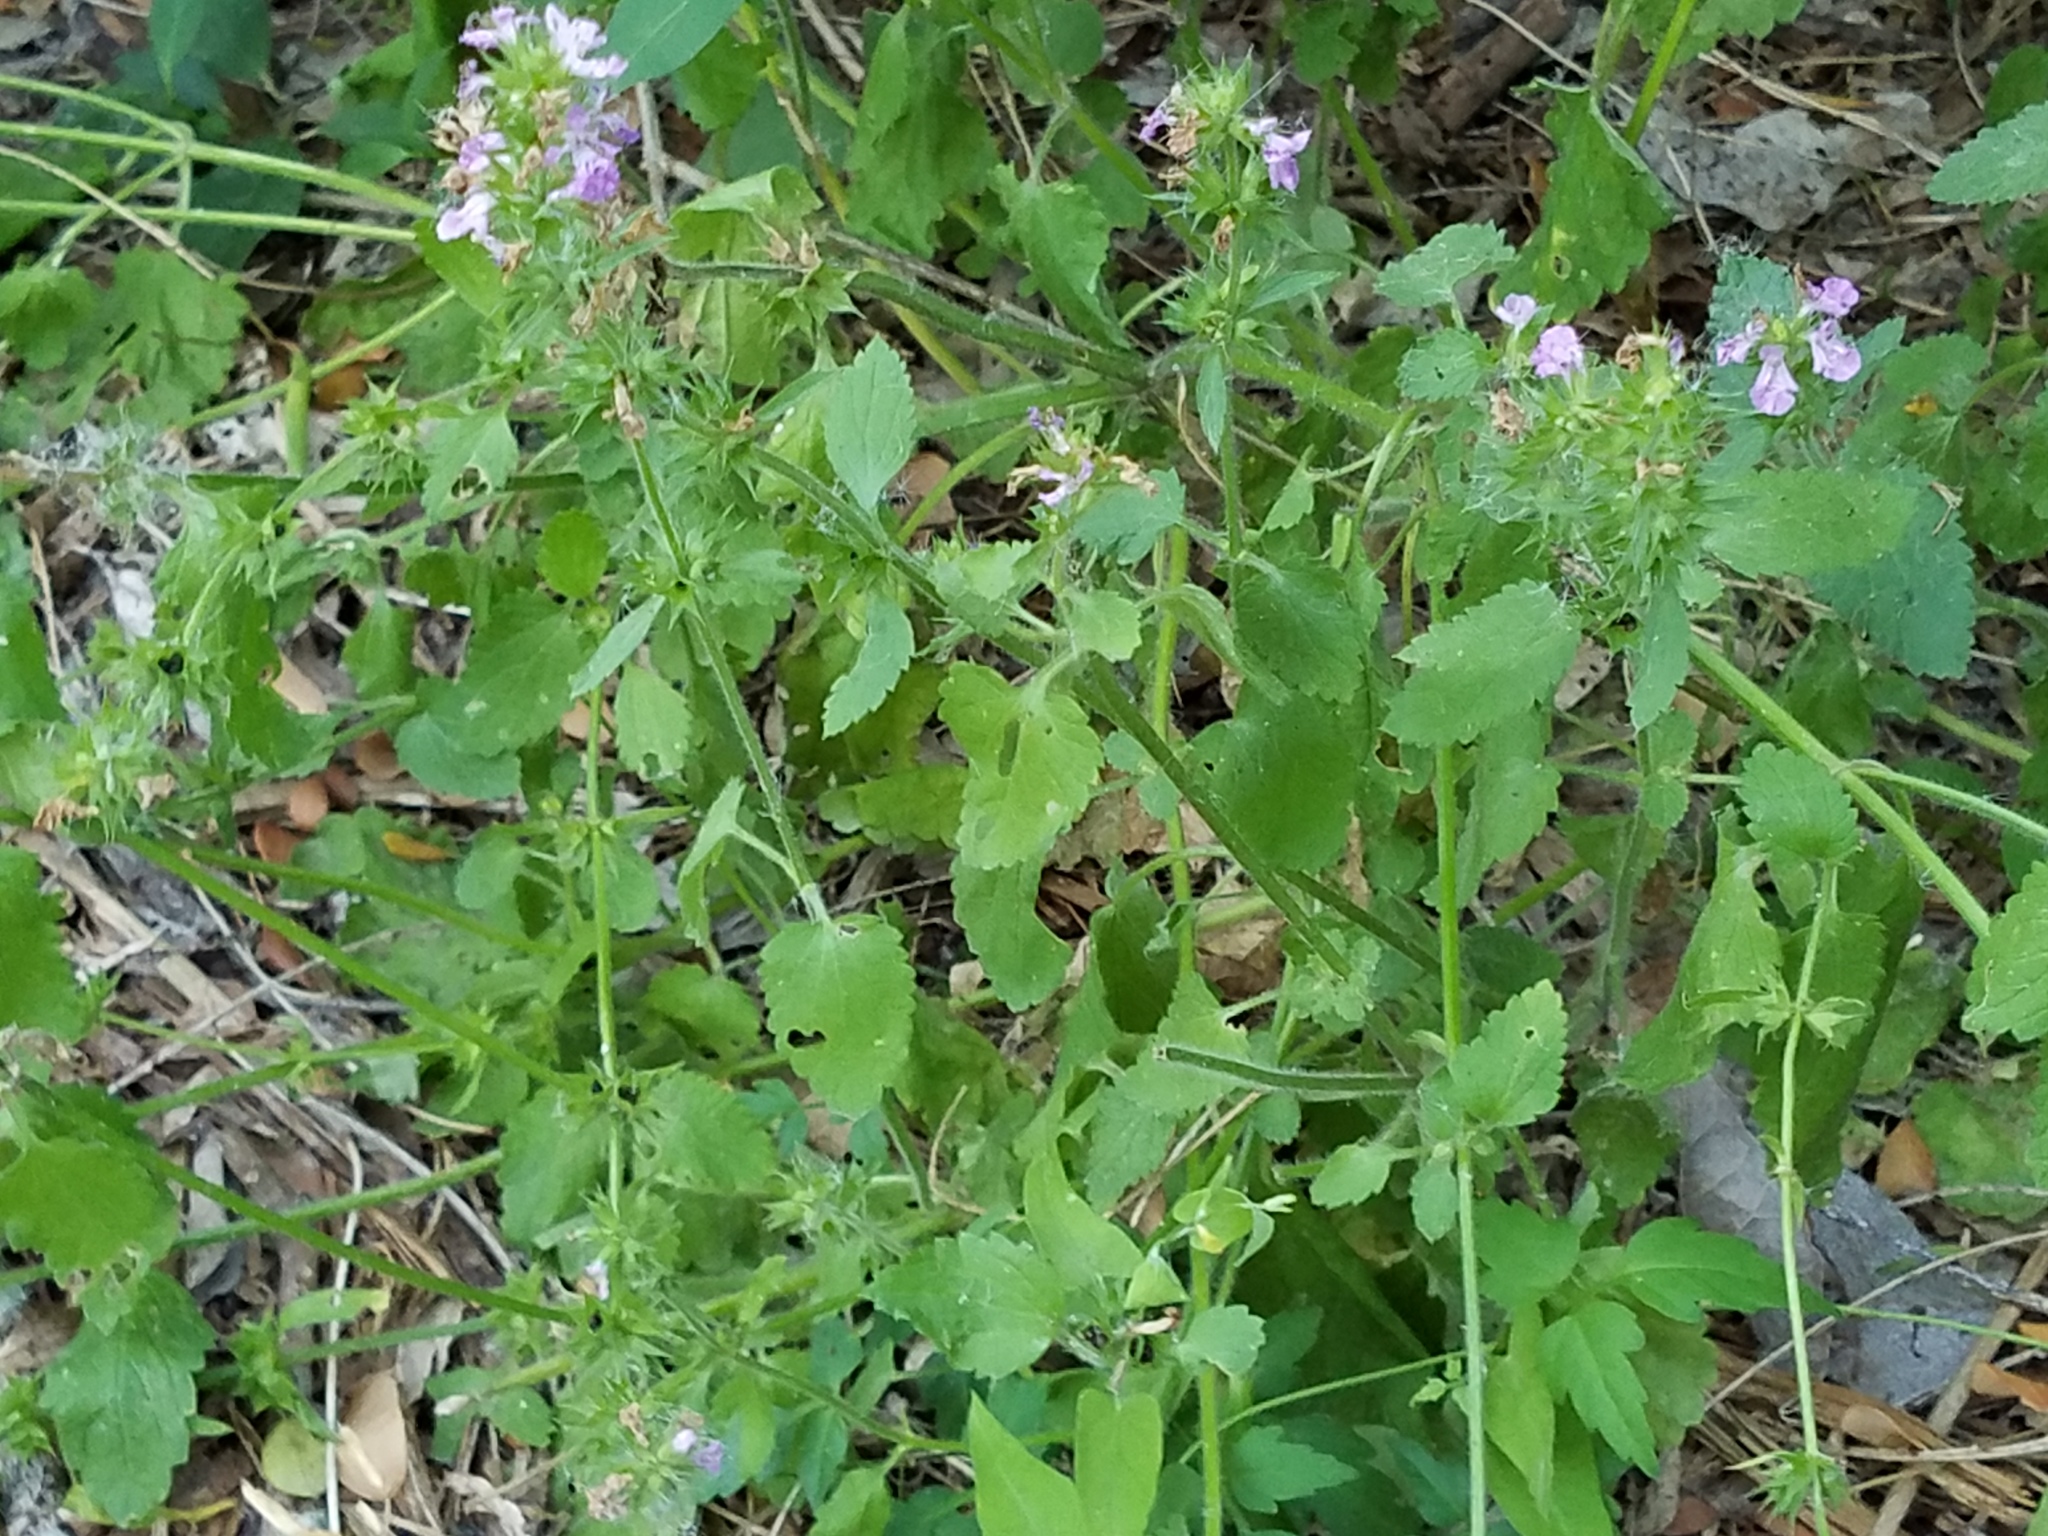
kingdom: Plantae
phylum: Tracheophyta
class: Magnoliopsida
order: Lamiales
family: Lamiaceae
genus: Stachys
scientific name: Stachys drummondii
